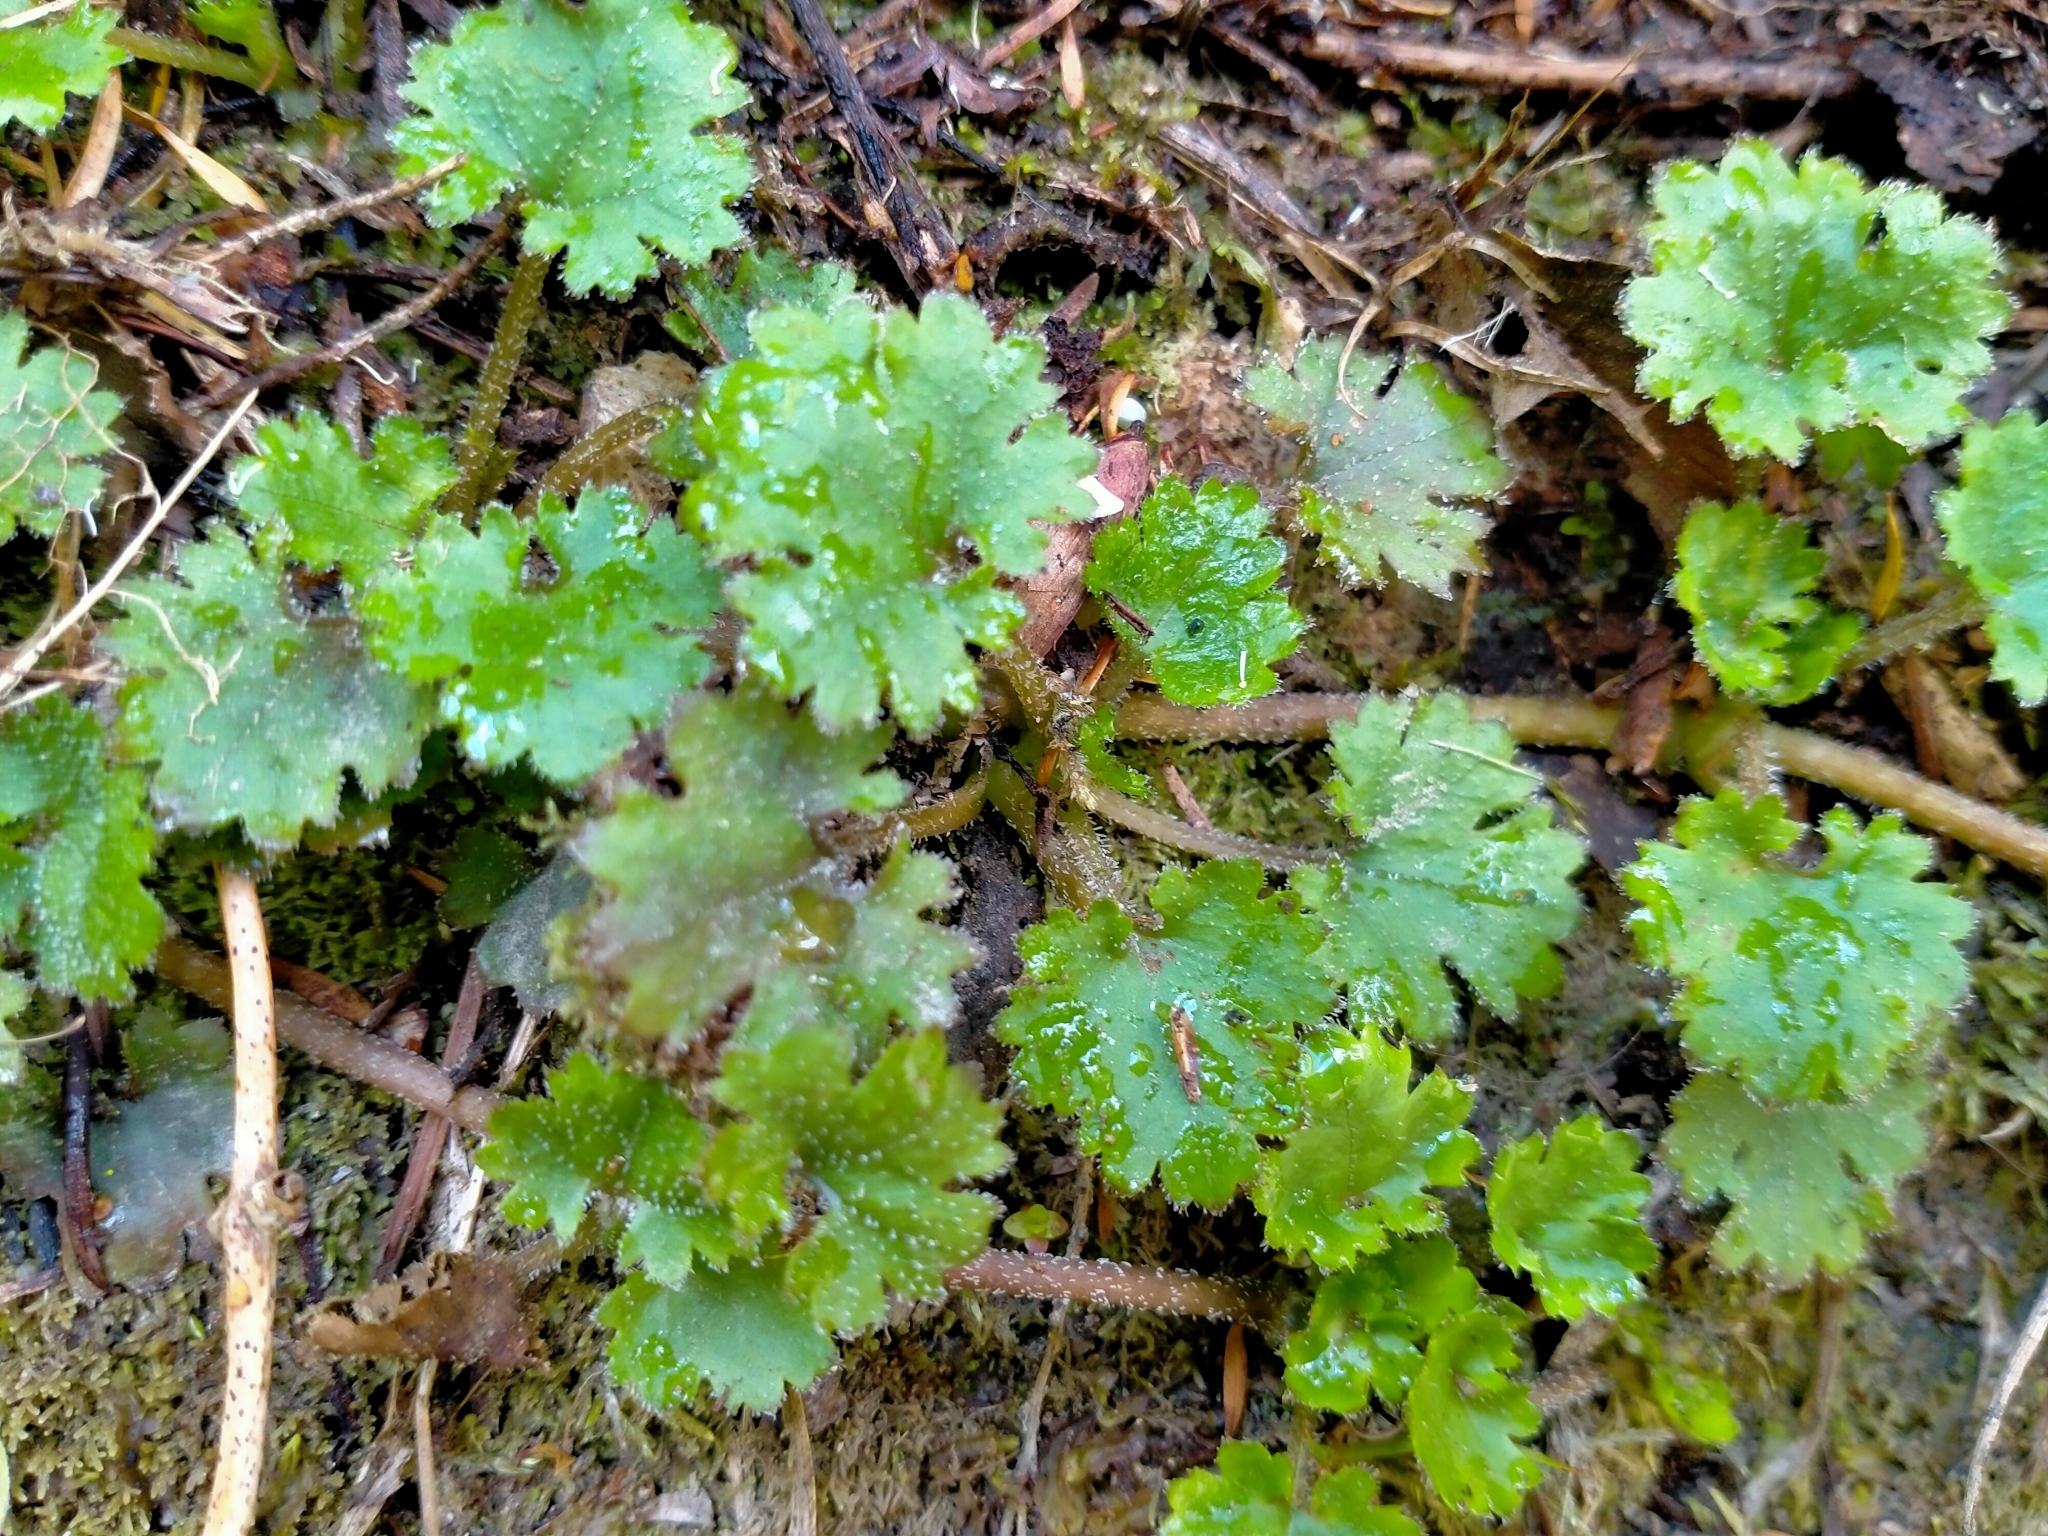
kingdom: Plantae
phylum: Tracheophyta
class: Magnoliopsida
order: Gunnerales
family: Gunneraceae
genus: Gunnera
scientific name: Gunnera monoica
